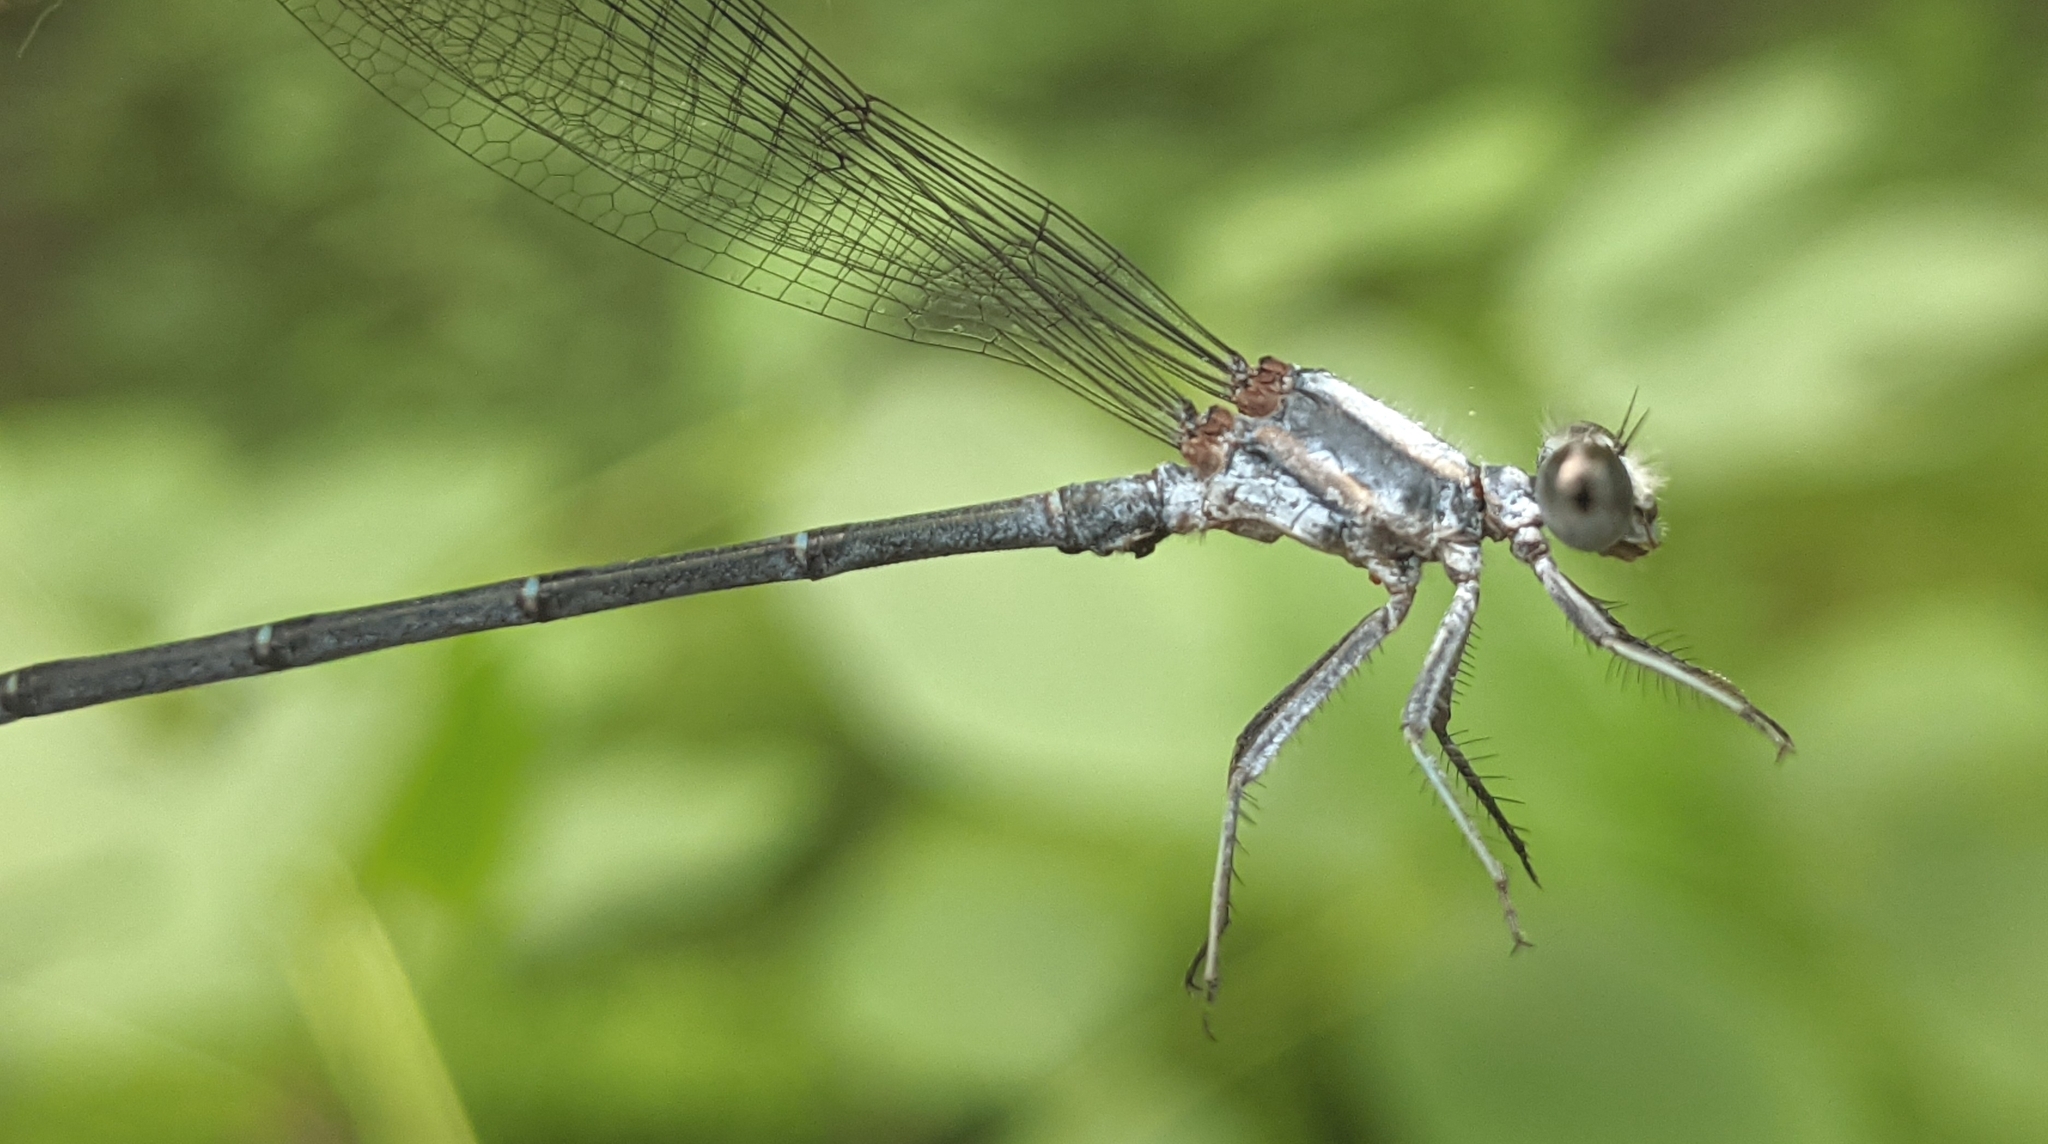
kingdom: Animalia
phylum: Arthropoda
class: Insecta
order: Odonata
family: Coenagrionidae
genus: Argia
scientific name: Argia moesta
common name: Powdered dancer
